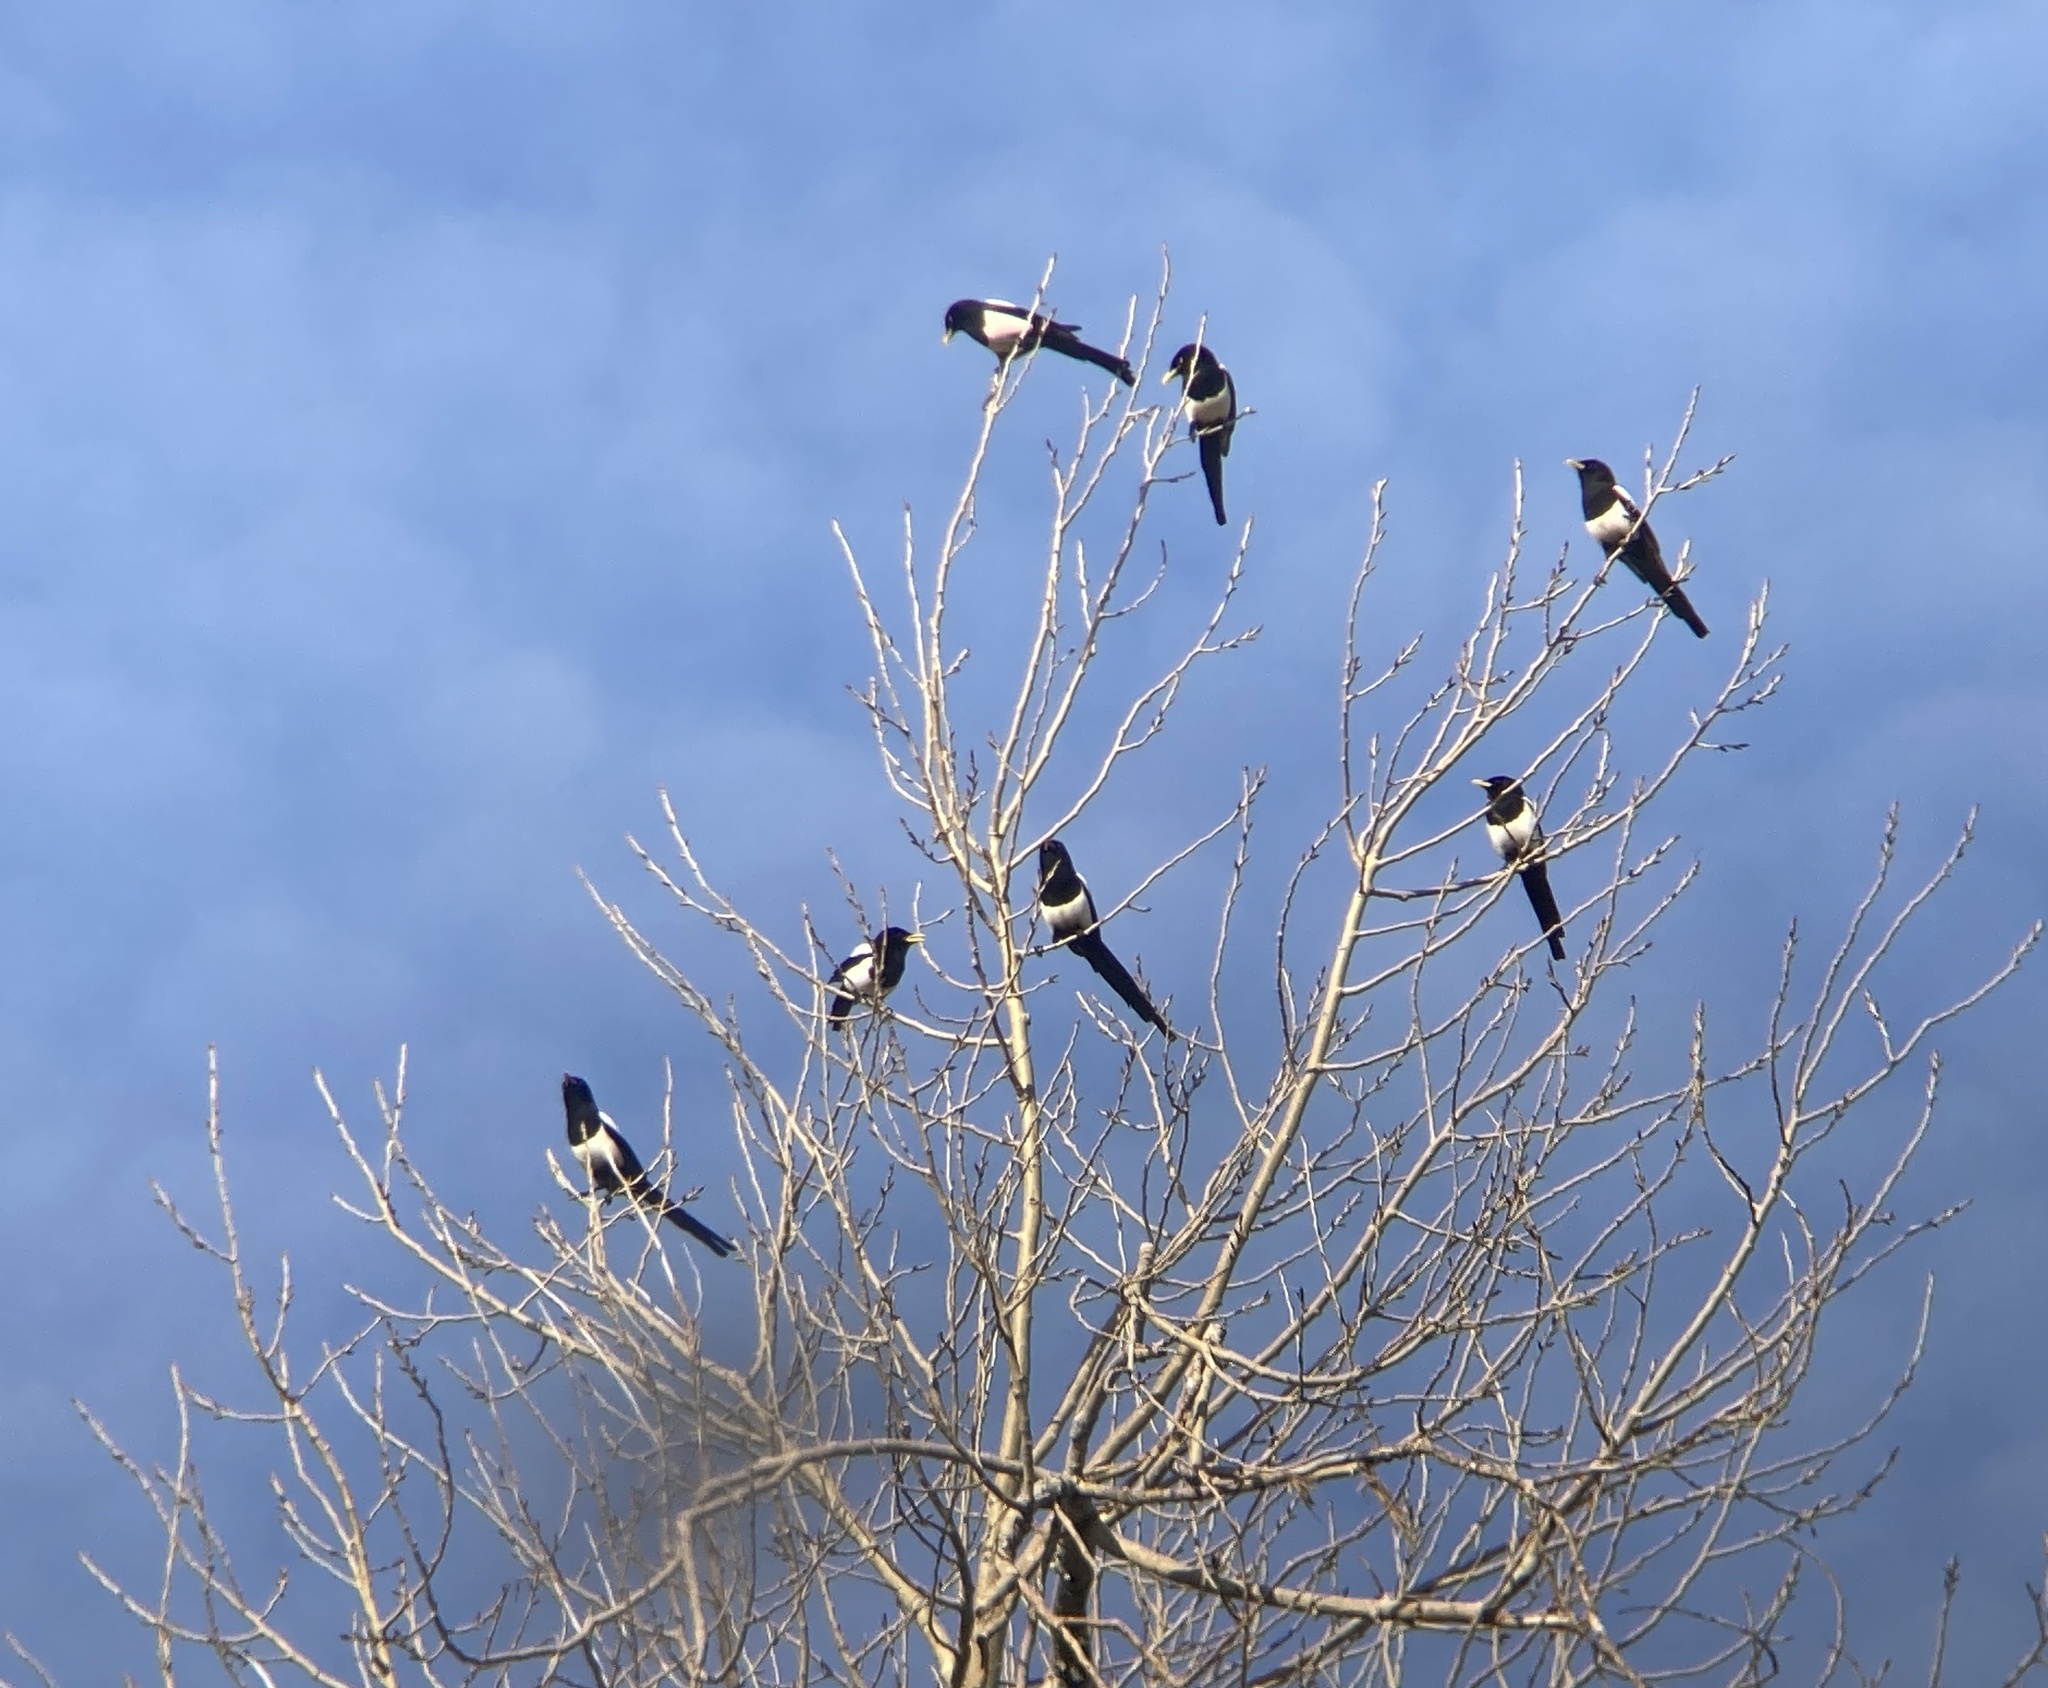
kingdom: Animalia
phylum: Chordata
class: Aves
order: Passeriformes
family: Corvidae
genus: Pica
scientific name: Pica nuttalli
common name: Yellow-billed magpie
